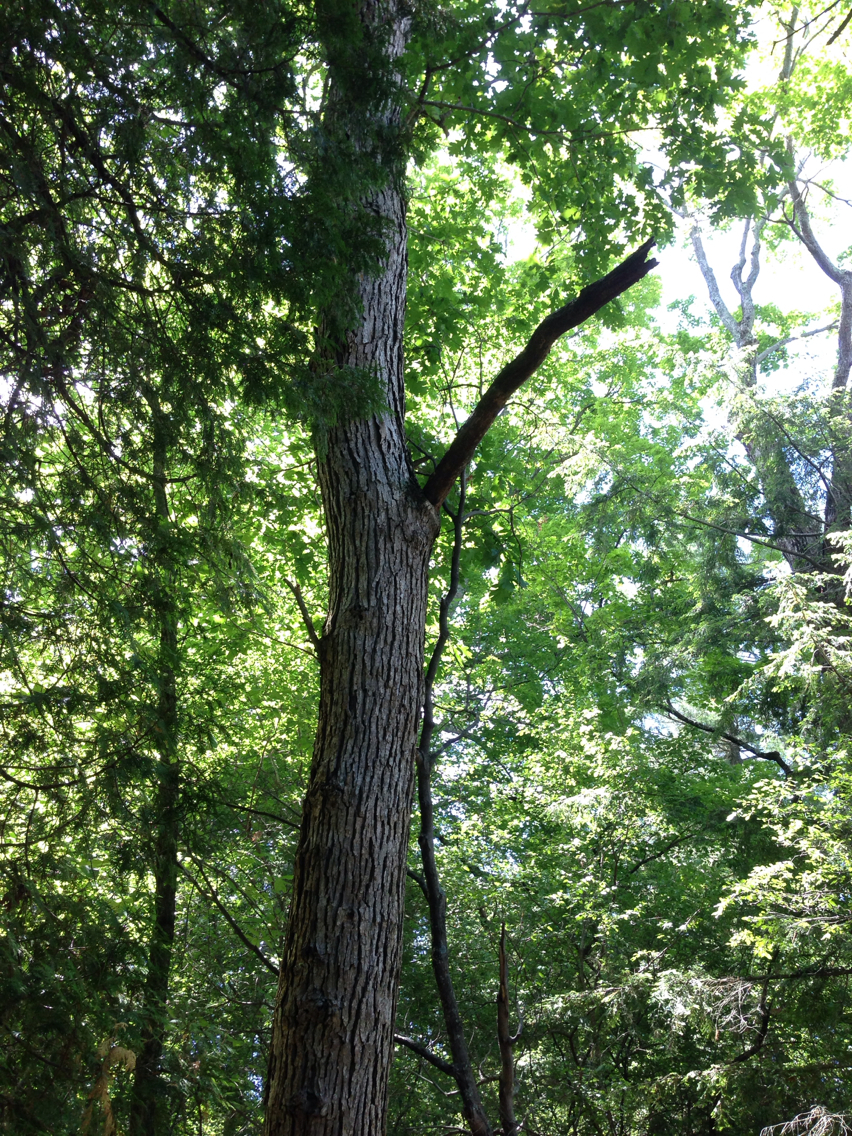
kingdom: Plantae
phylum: Tracheophyta
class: Magnoliopsida
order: Fagales
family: Fagaceae
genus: Quercus
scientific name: Quercus alba
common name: White oak
